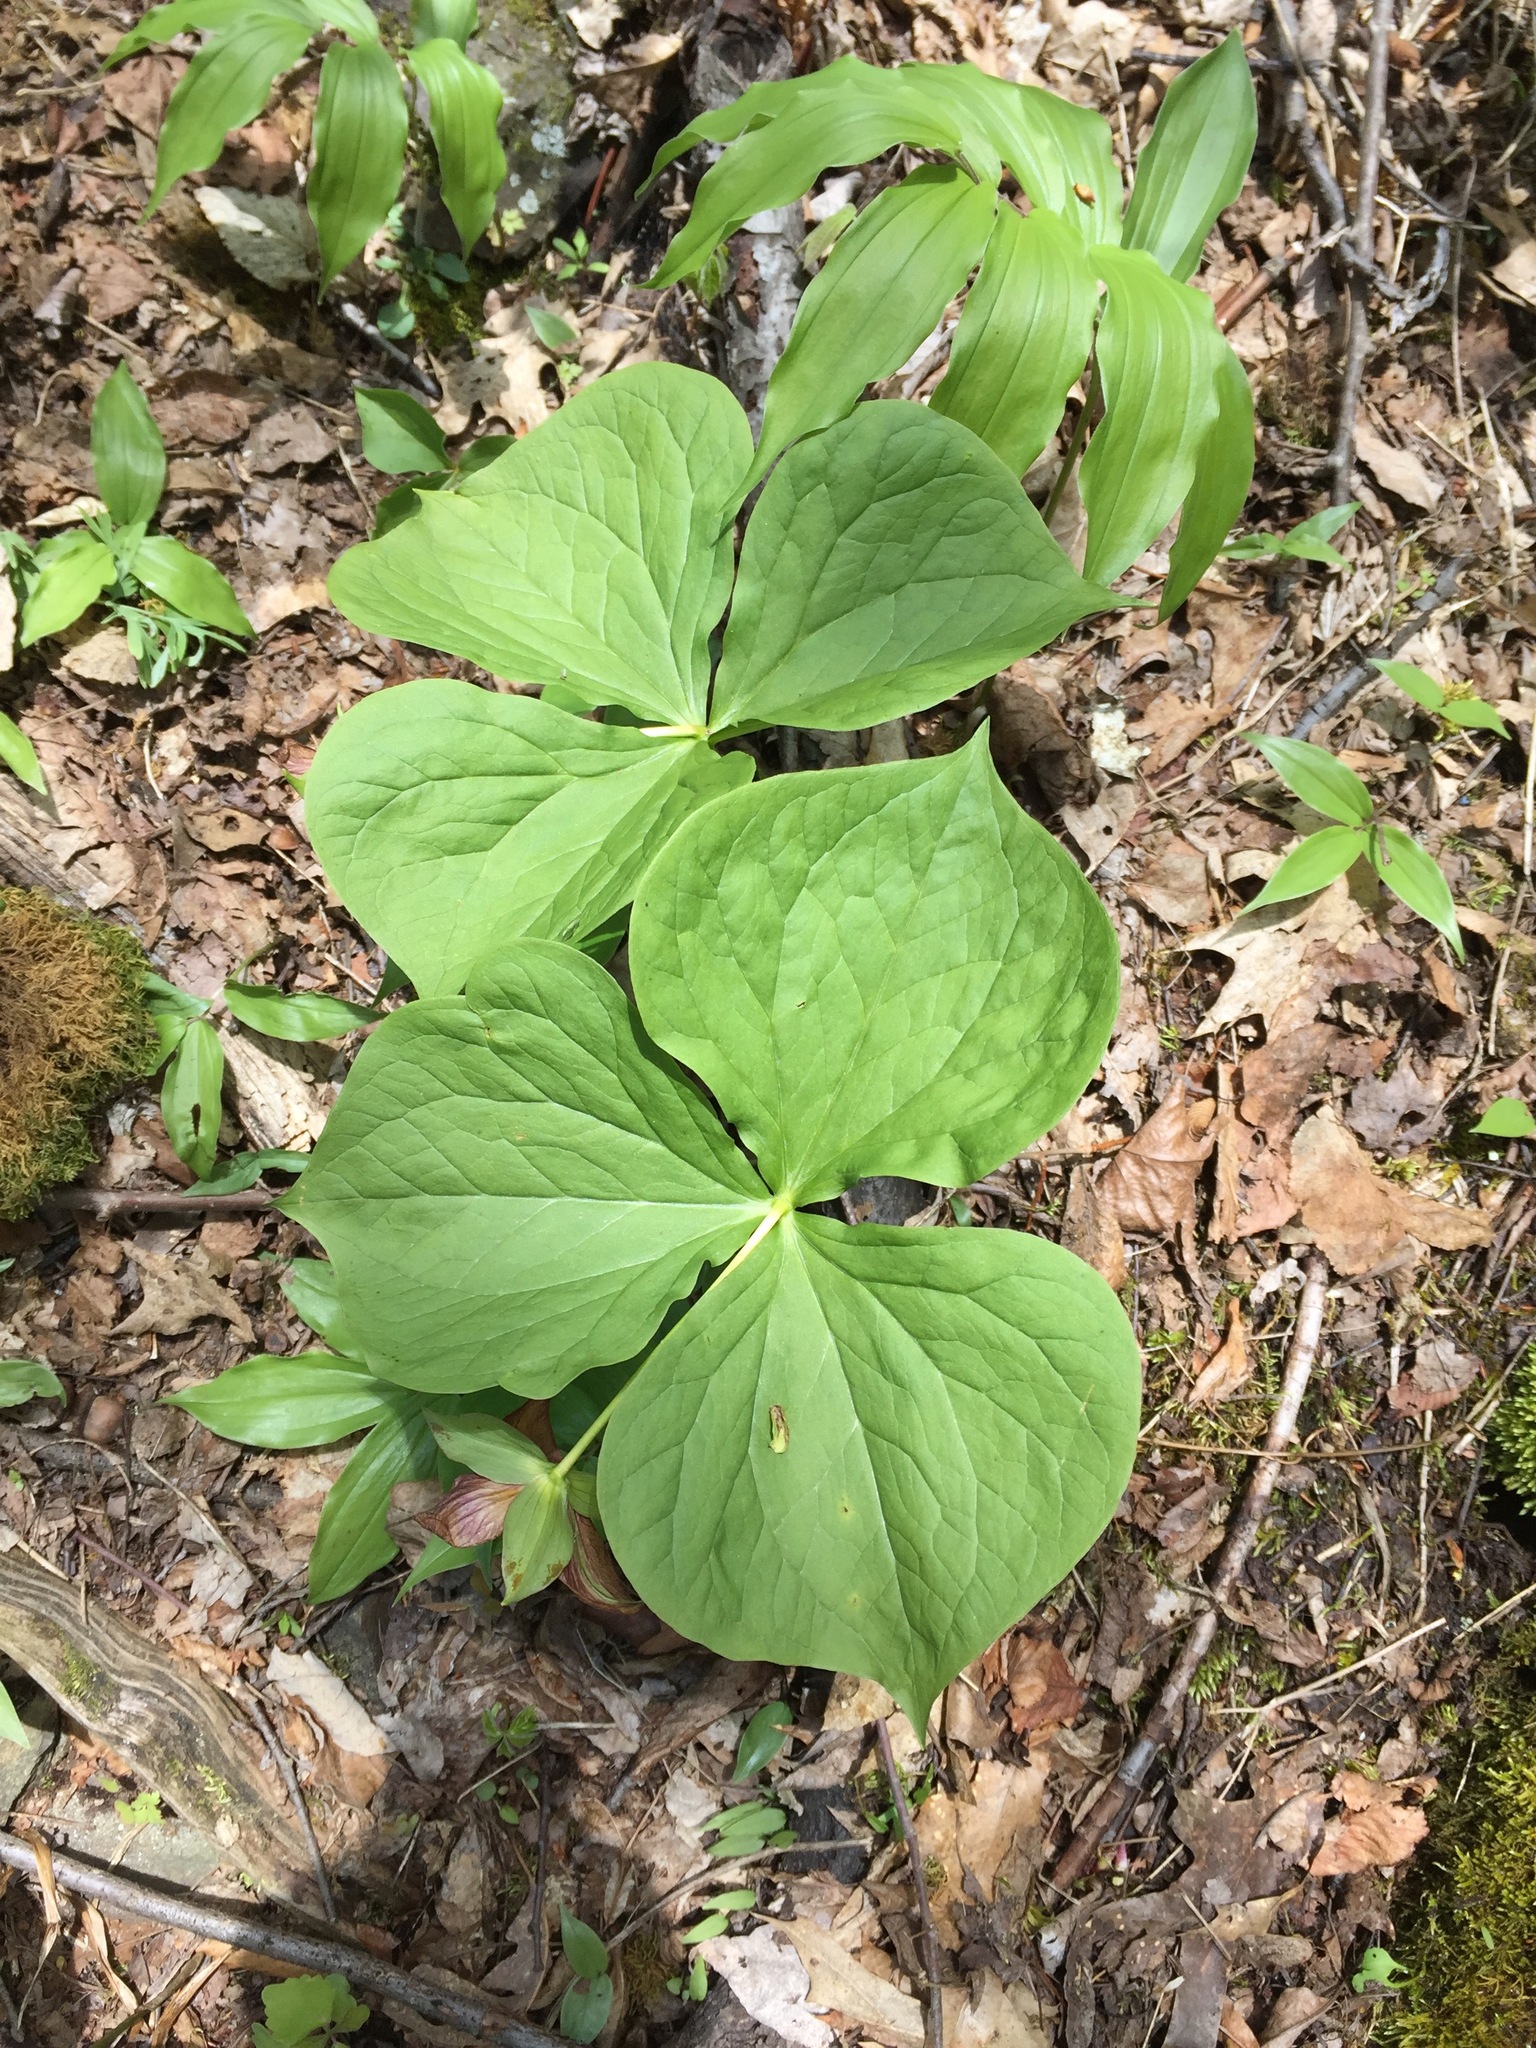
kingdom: Plantae
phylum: Tracheophyta
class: Liliopsida
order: Liliales
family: Melanthiaceae
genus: Trillium
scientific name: Trillium erectum
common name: Purple trillium
